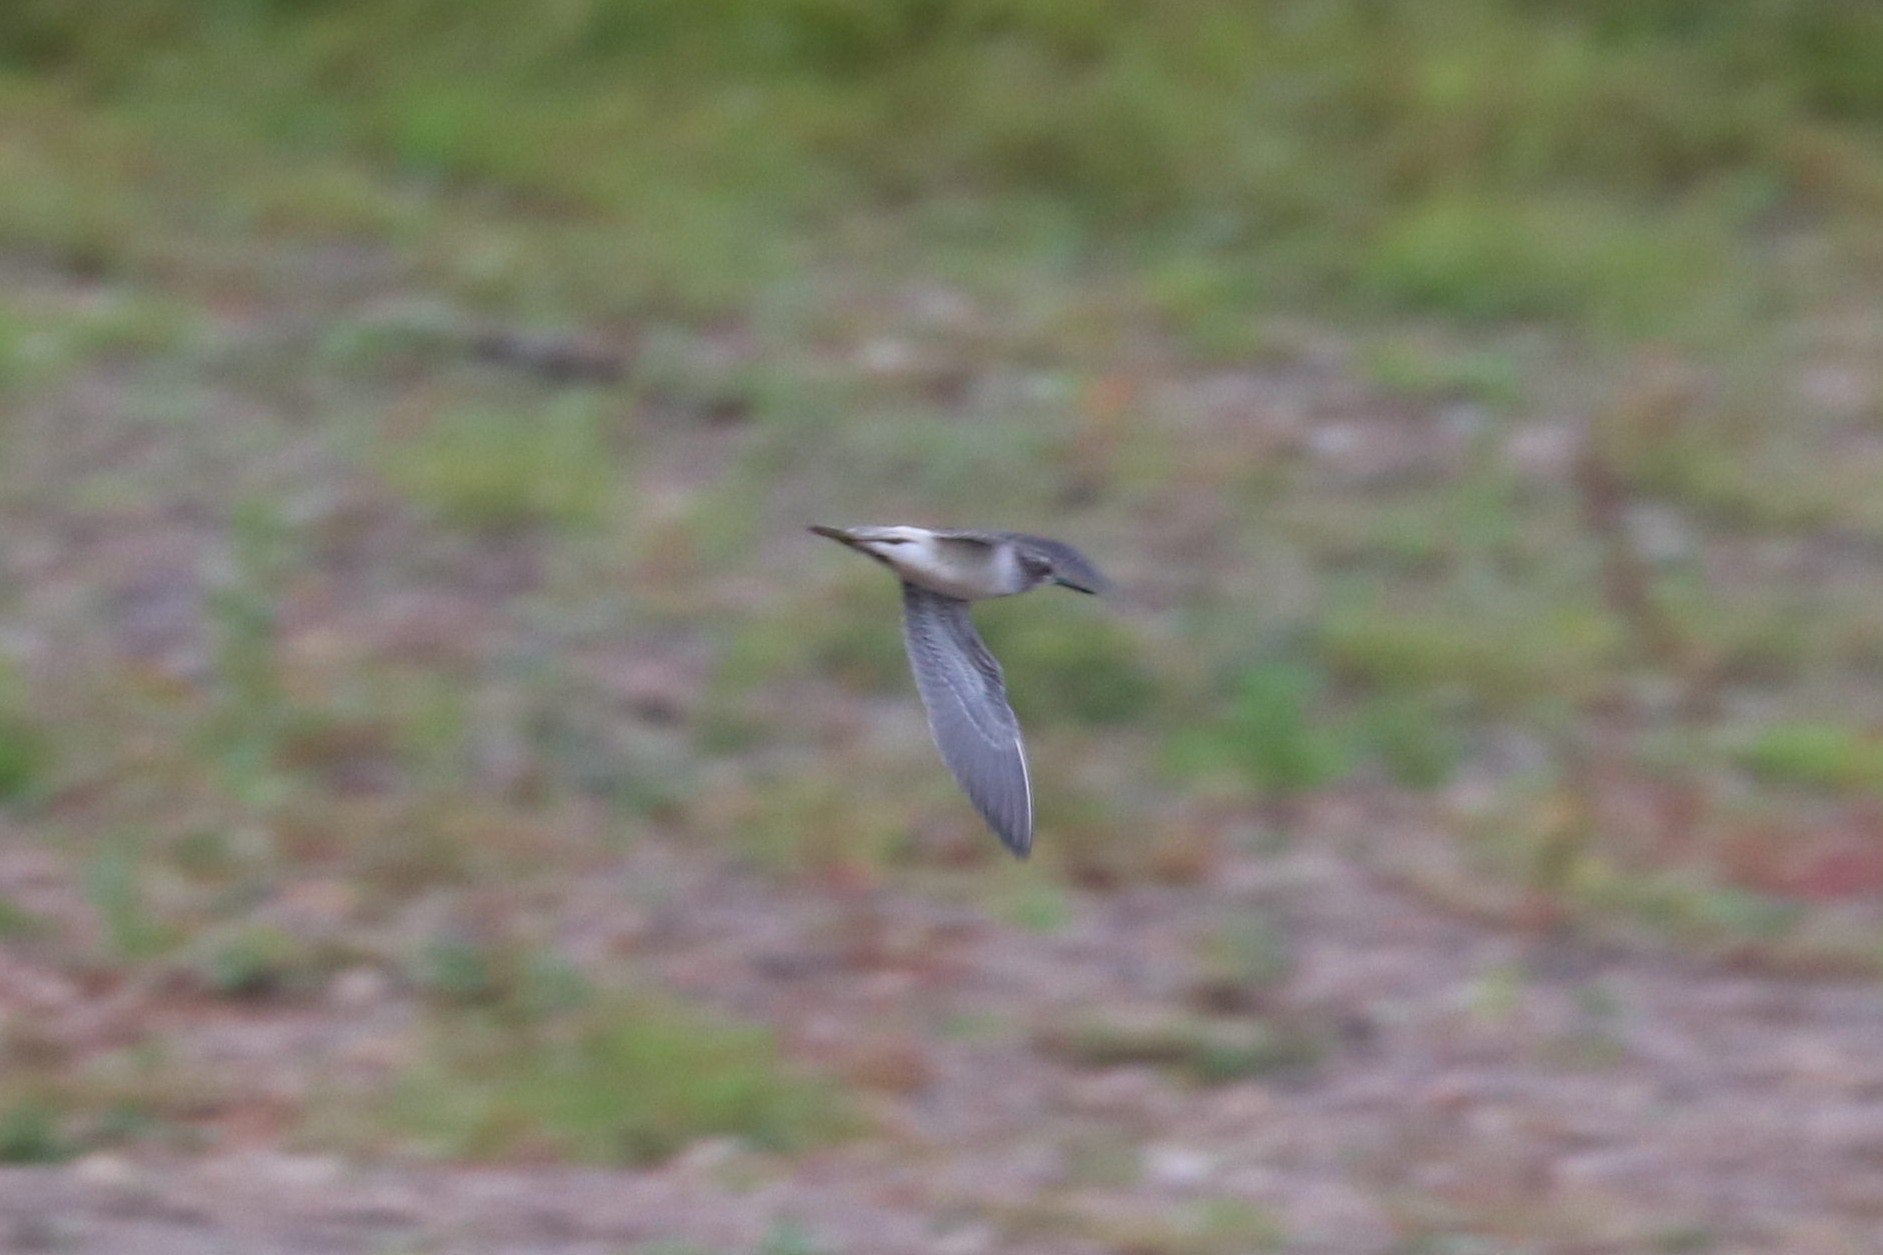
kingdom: Animalia
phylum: Chordata
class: Aves
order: Charadriiformes
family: Scolopacidae
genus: Tringa
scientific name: Tringa nebularia
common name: Common greenshank
